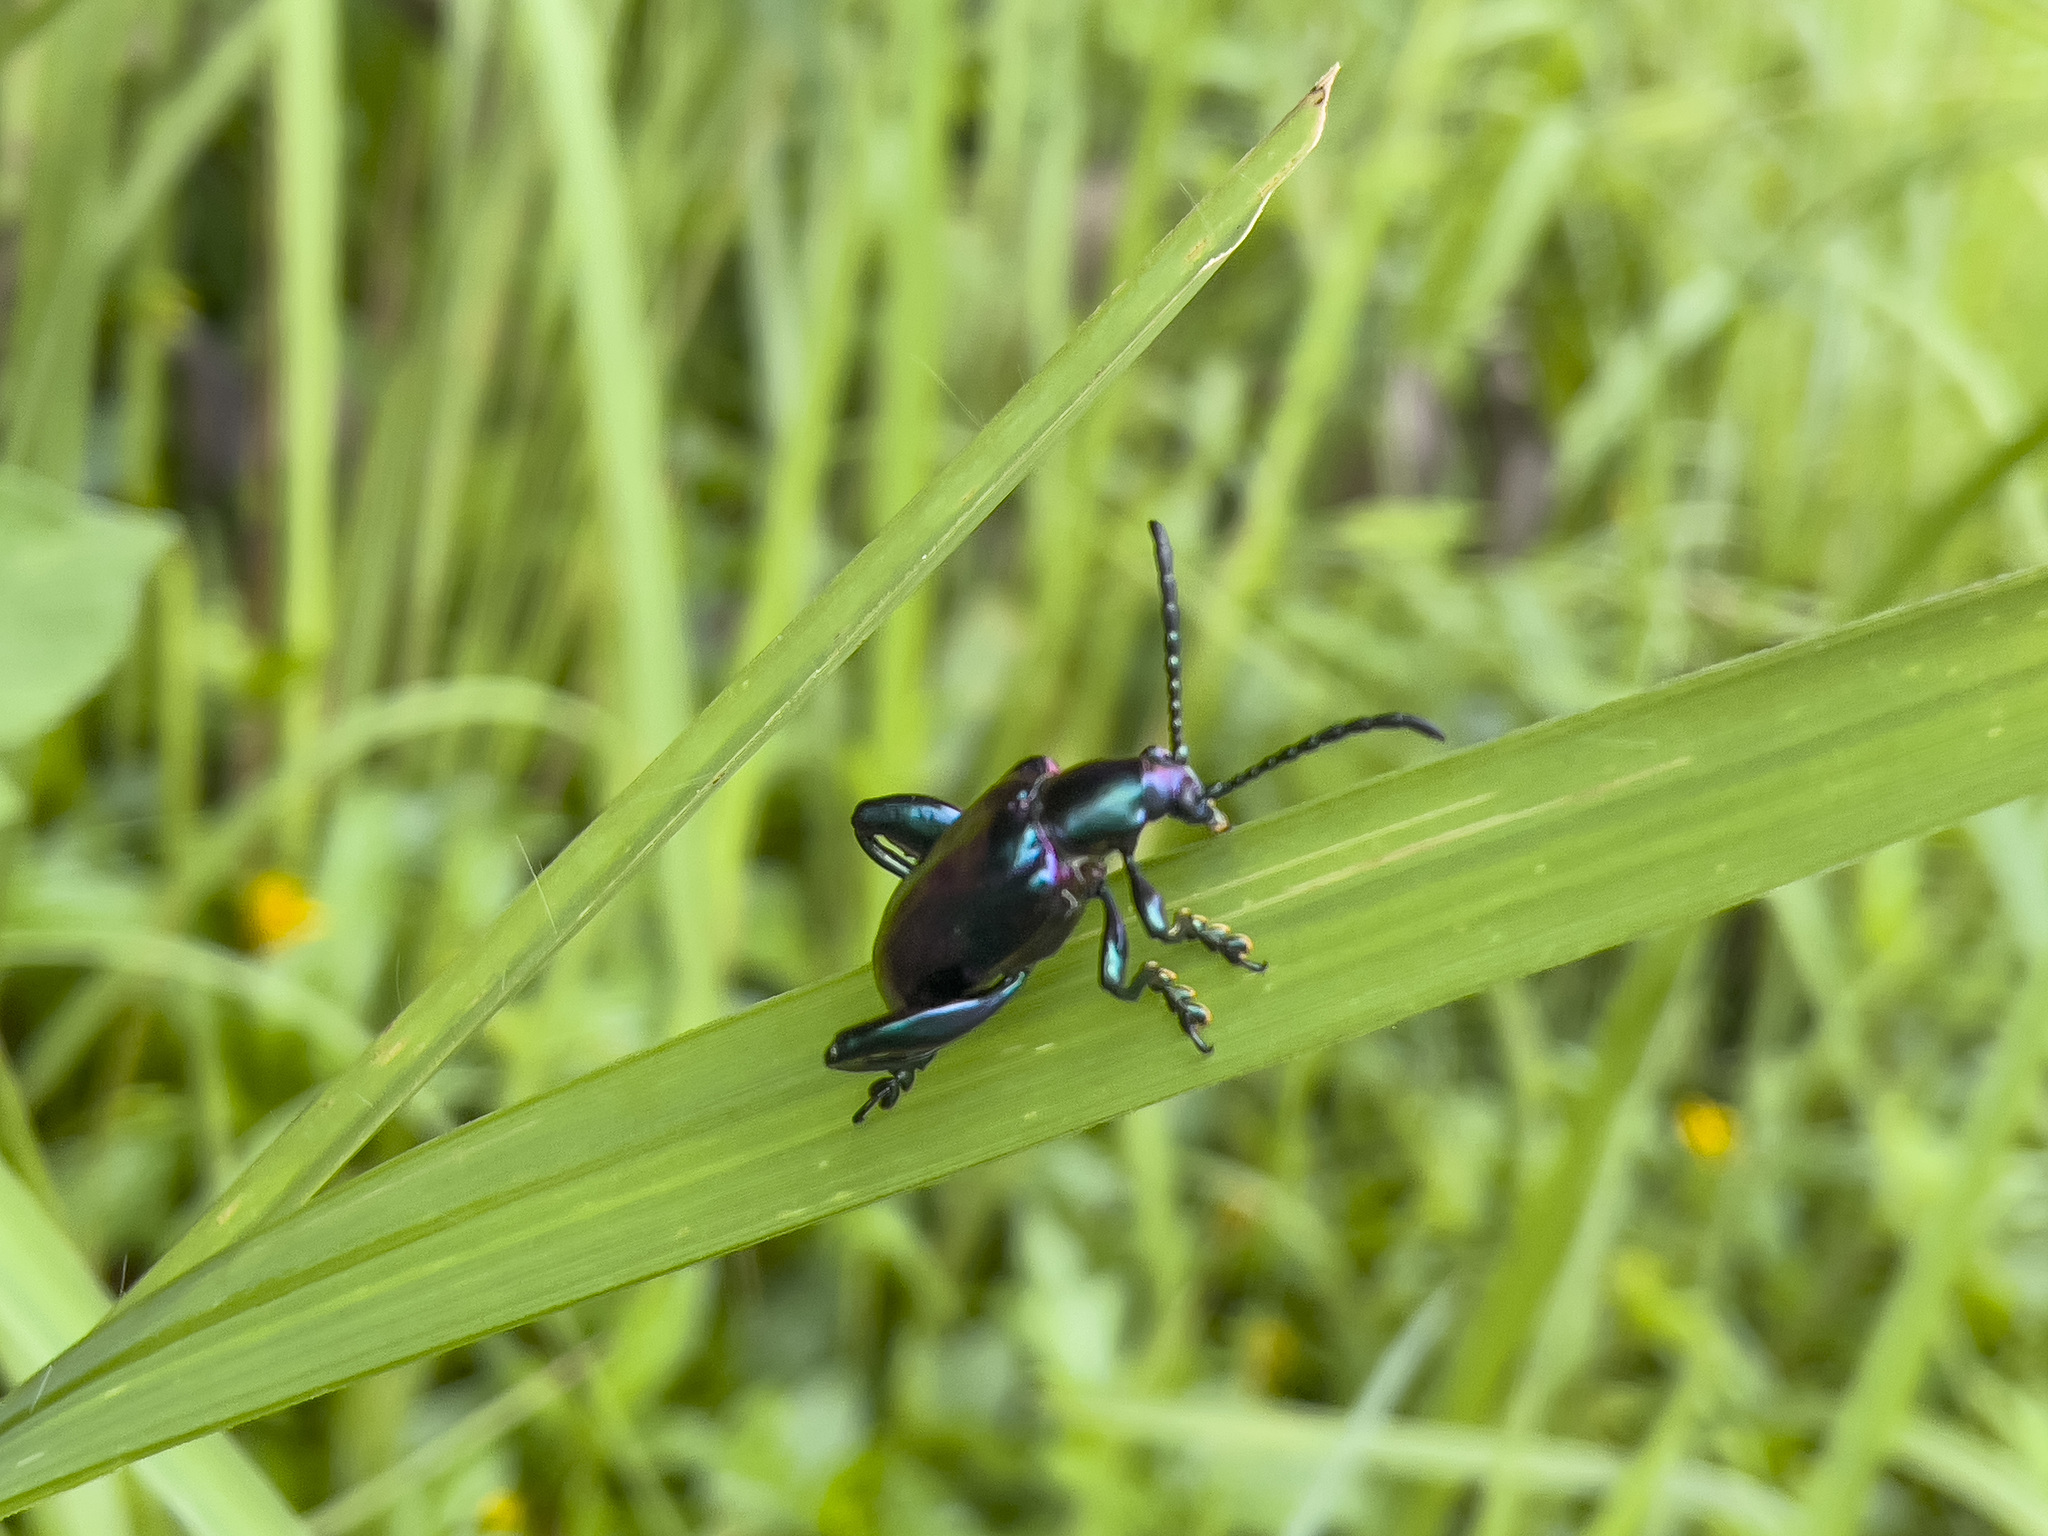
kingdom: Animalia
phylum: Arthropoda
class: Insecta
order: Coleoptera
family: Chrysomelidae
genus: Sagra
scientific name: Sagra femorata
